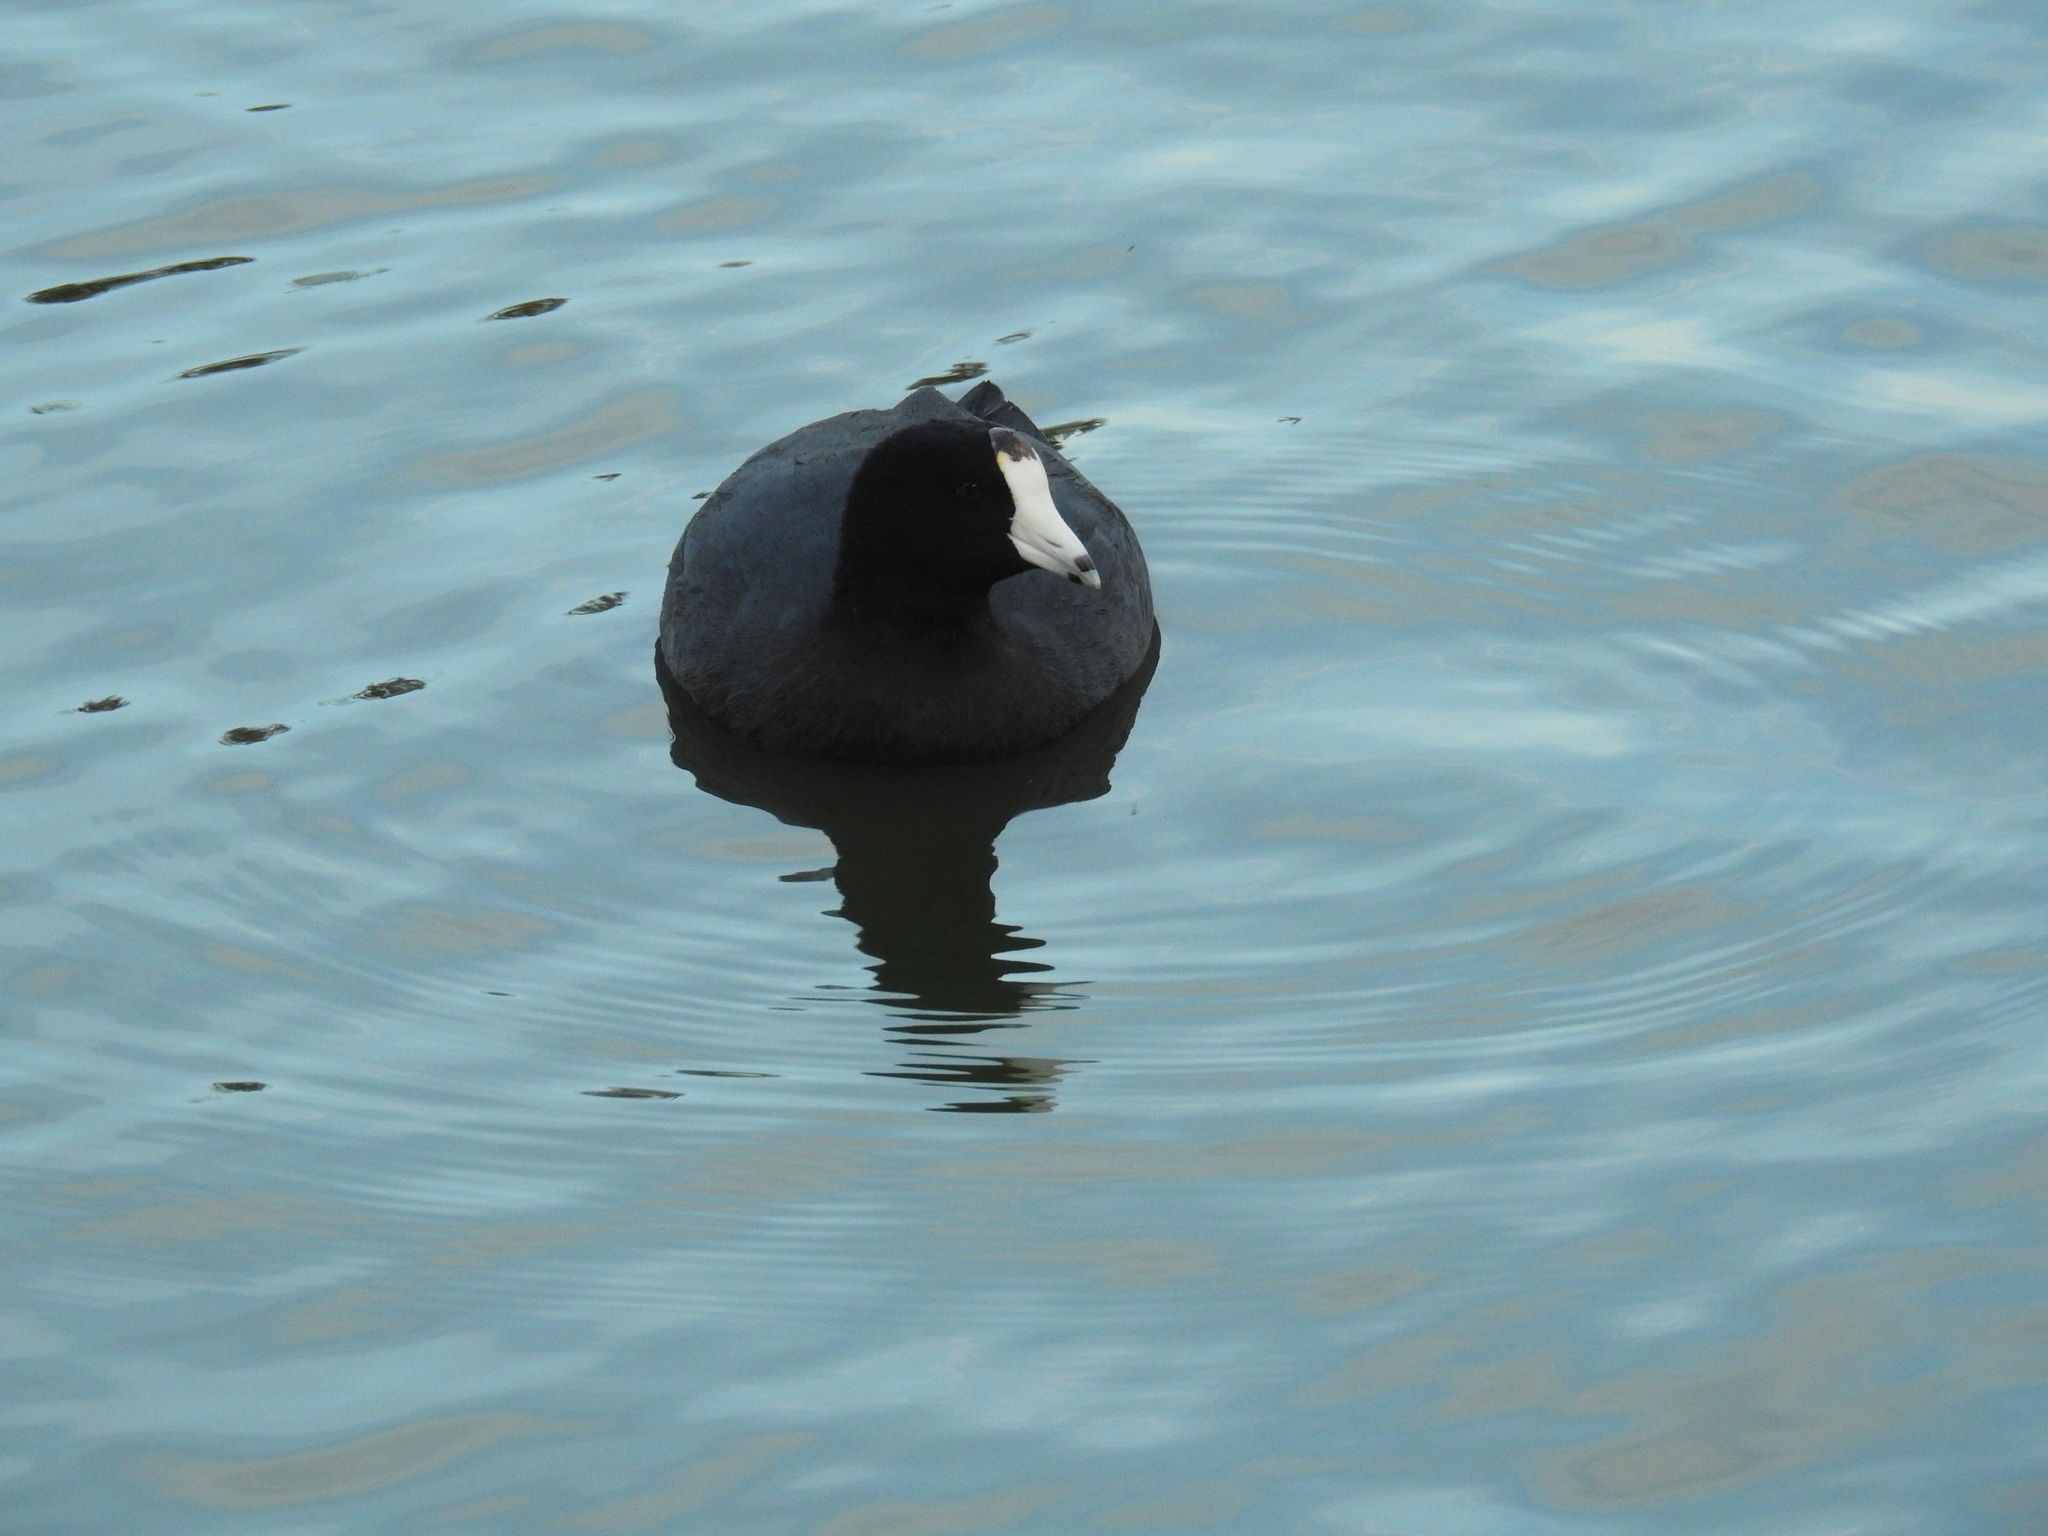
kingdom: Animalia
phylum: Chordata
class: Aves
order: Gruiformes
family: Rallidae
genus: Fulica
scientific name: Fulica americana
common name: American coot
